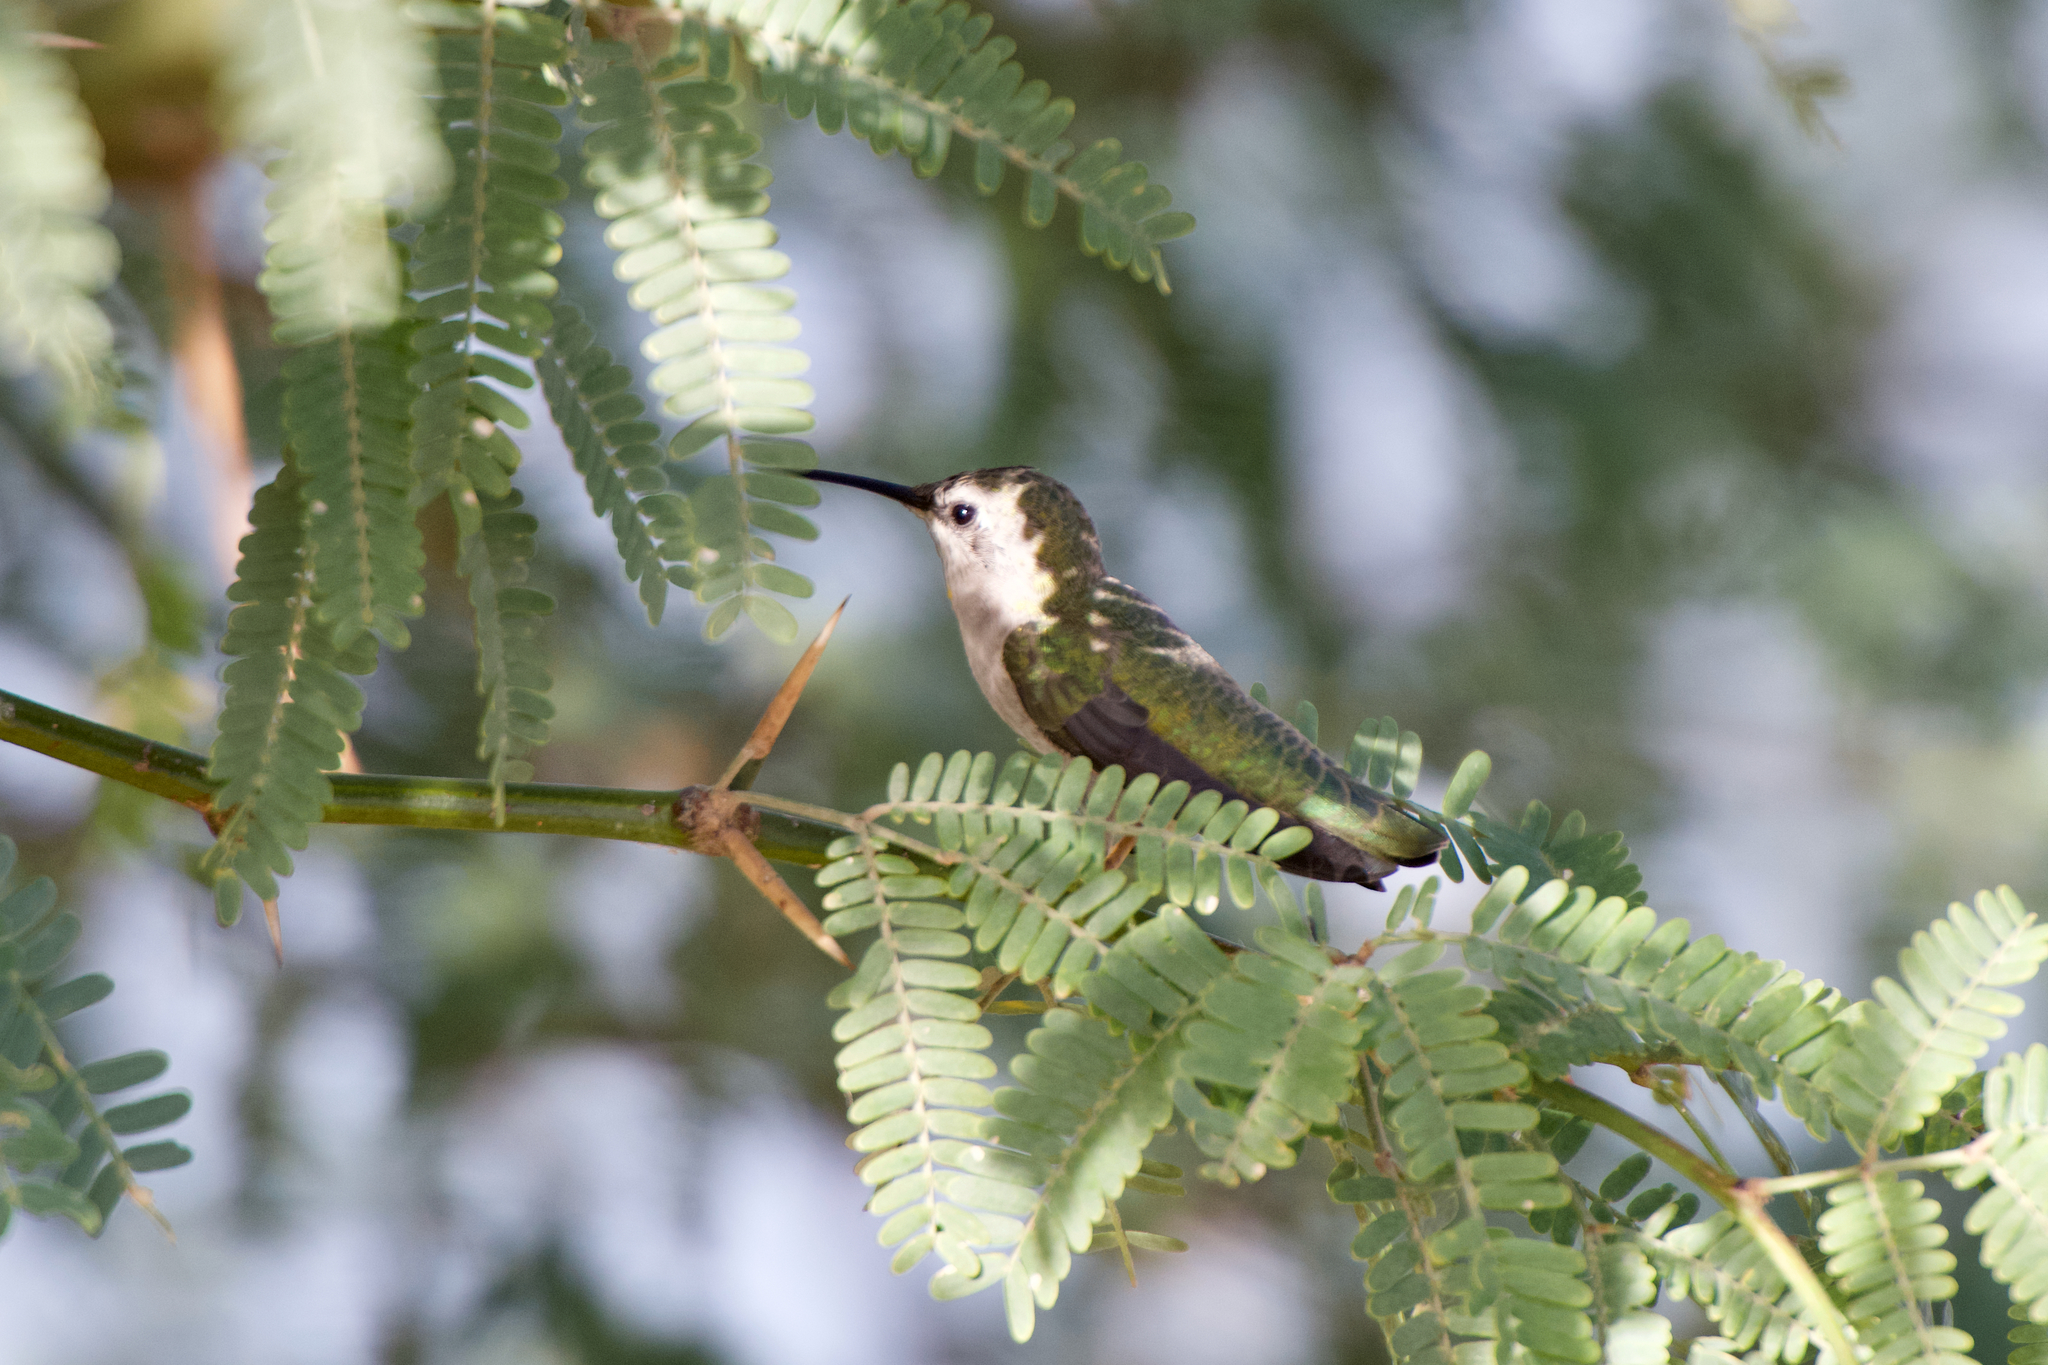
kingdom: Animalia
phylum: Chordata
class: Aves
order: Apodiformes
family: Trochilidae
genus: Calypte
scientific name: Calypte costae
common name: Costa's hummingbird
